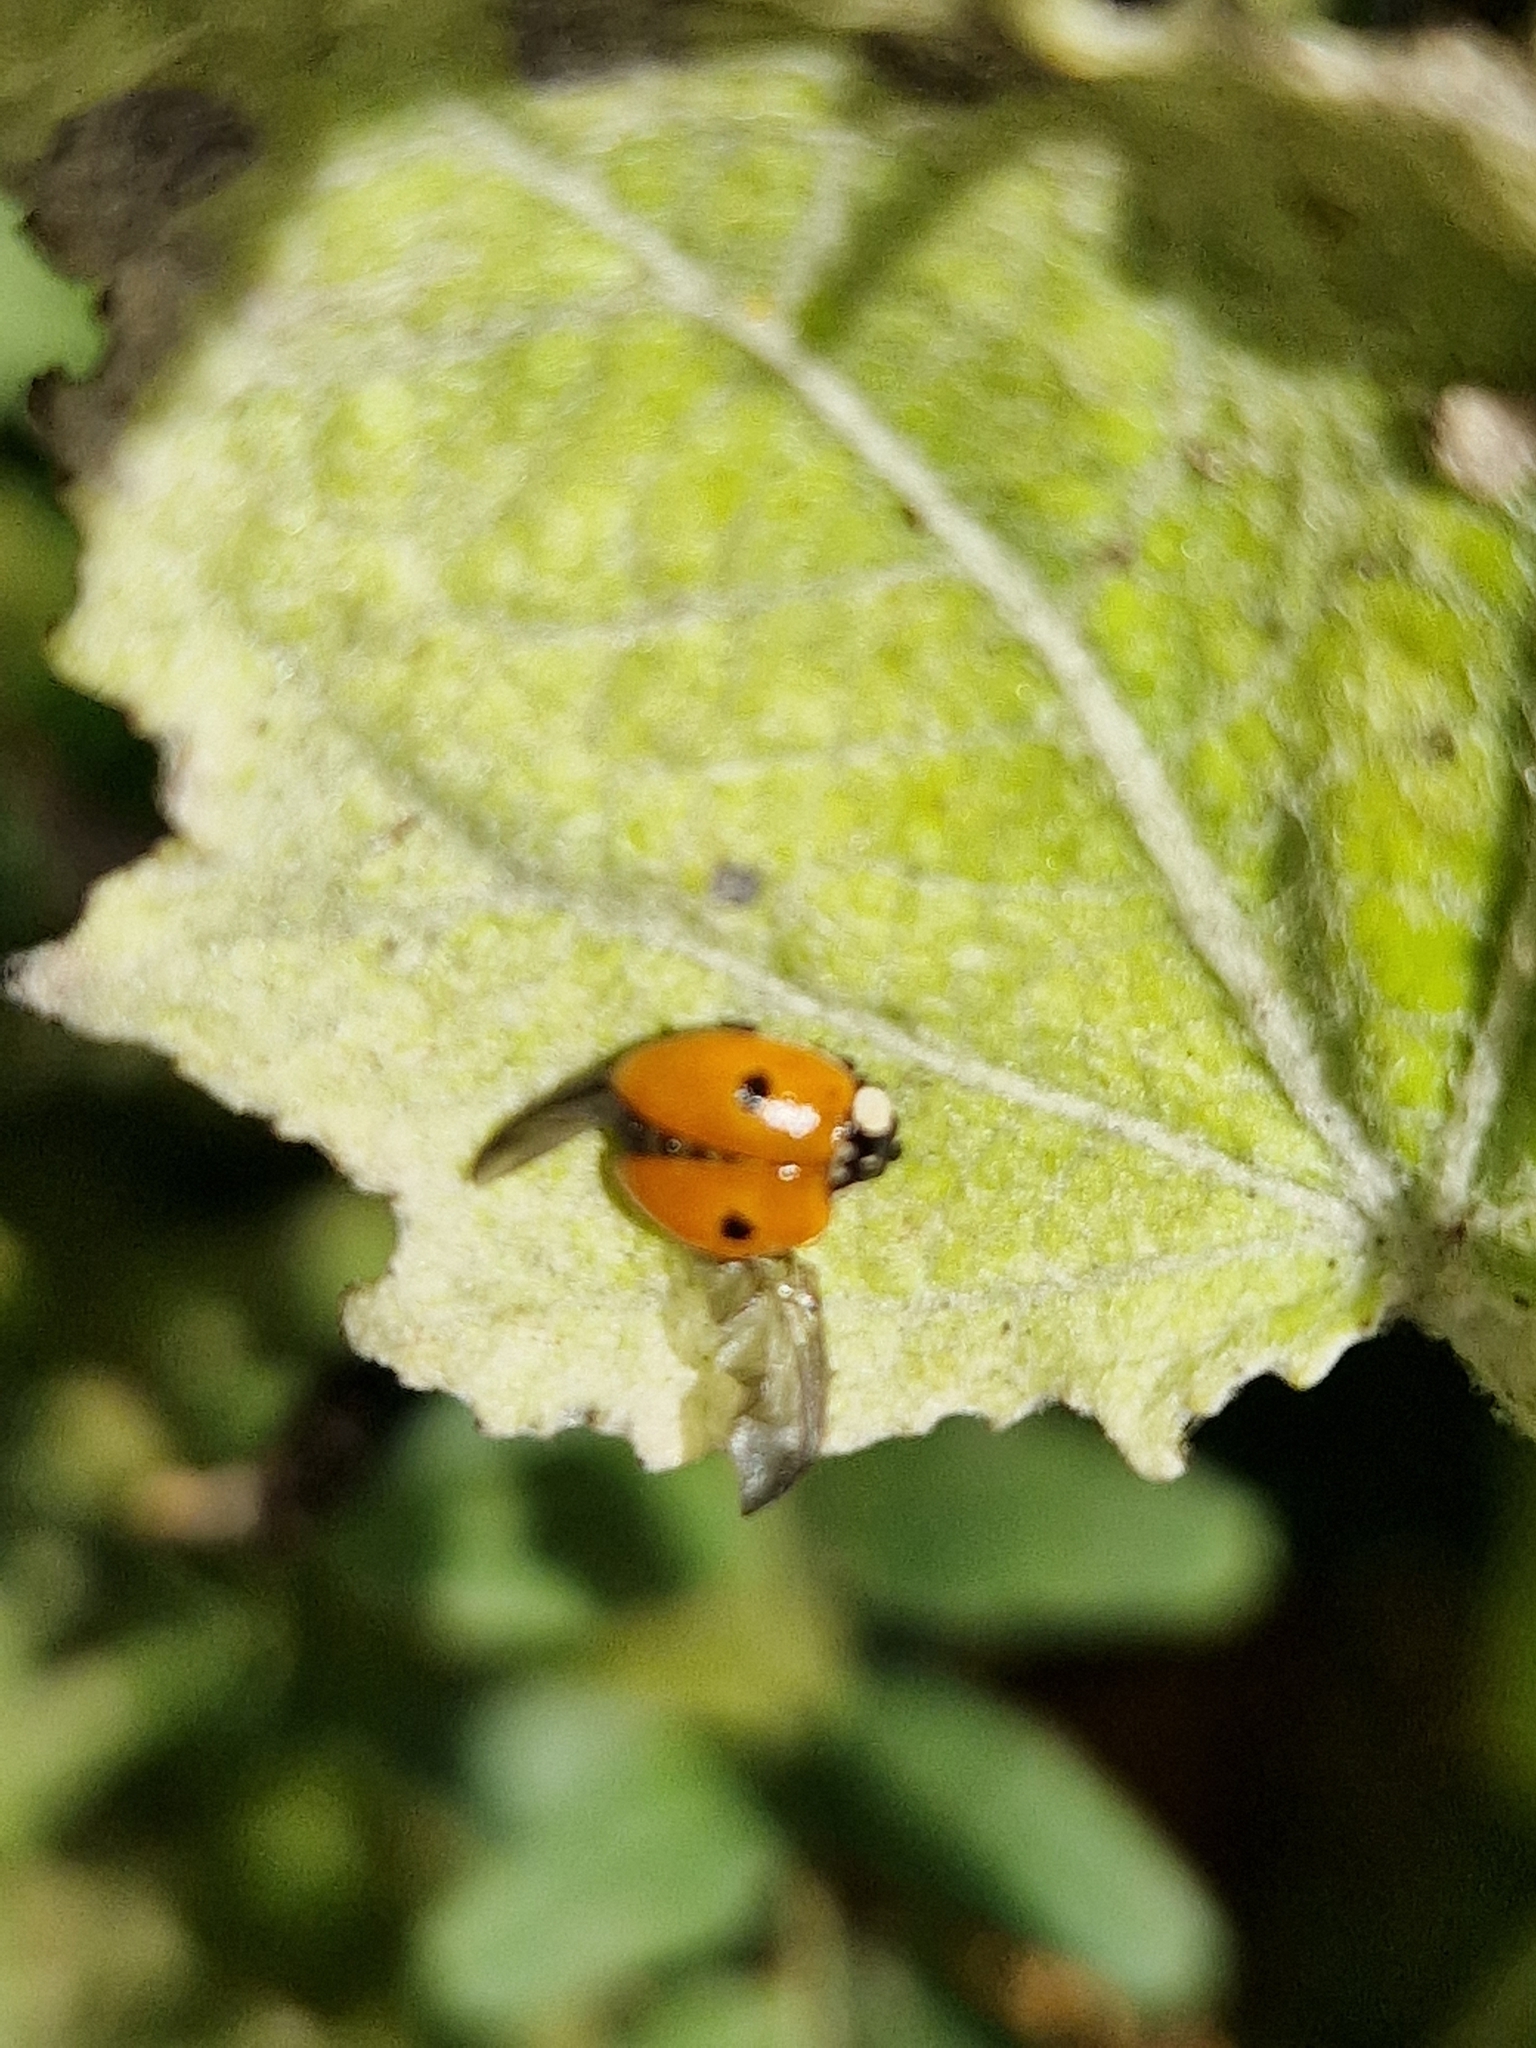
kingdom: Animalia
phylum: Arthropoda
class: Insecta
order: Coleoptera
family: Coccinellidae
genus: Adalia
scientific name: Adalia bipunctata
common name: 2-spot ladybird
